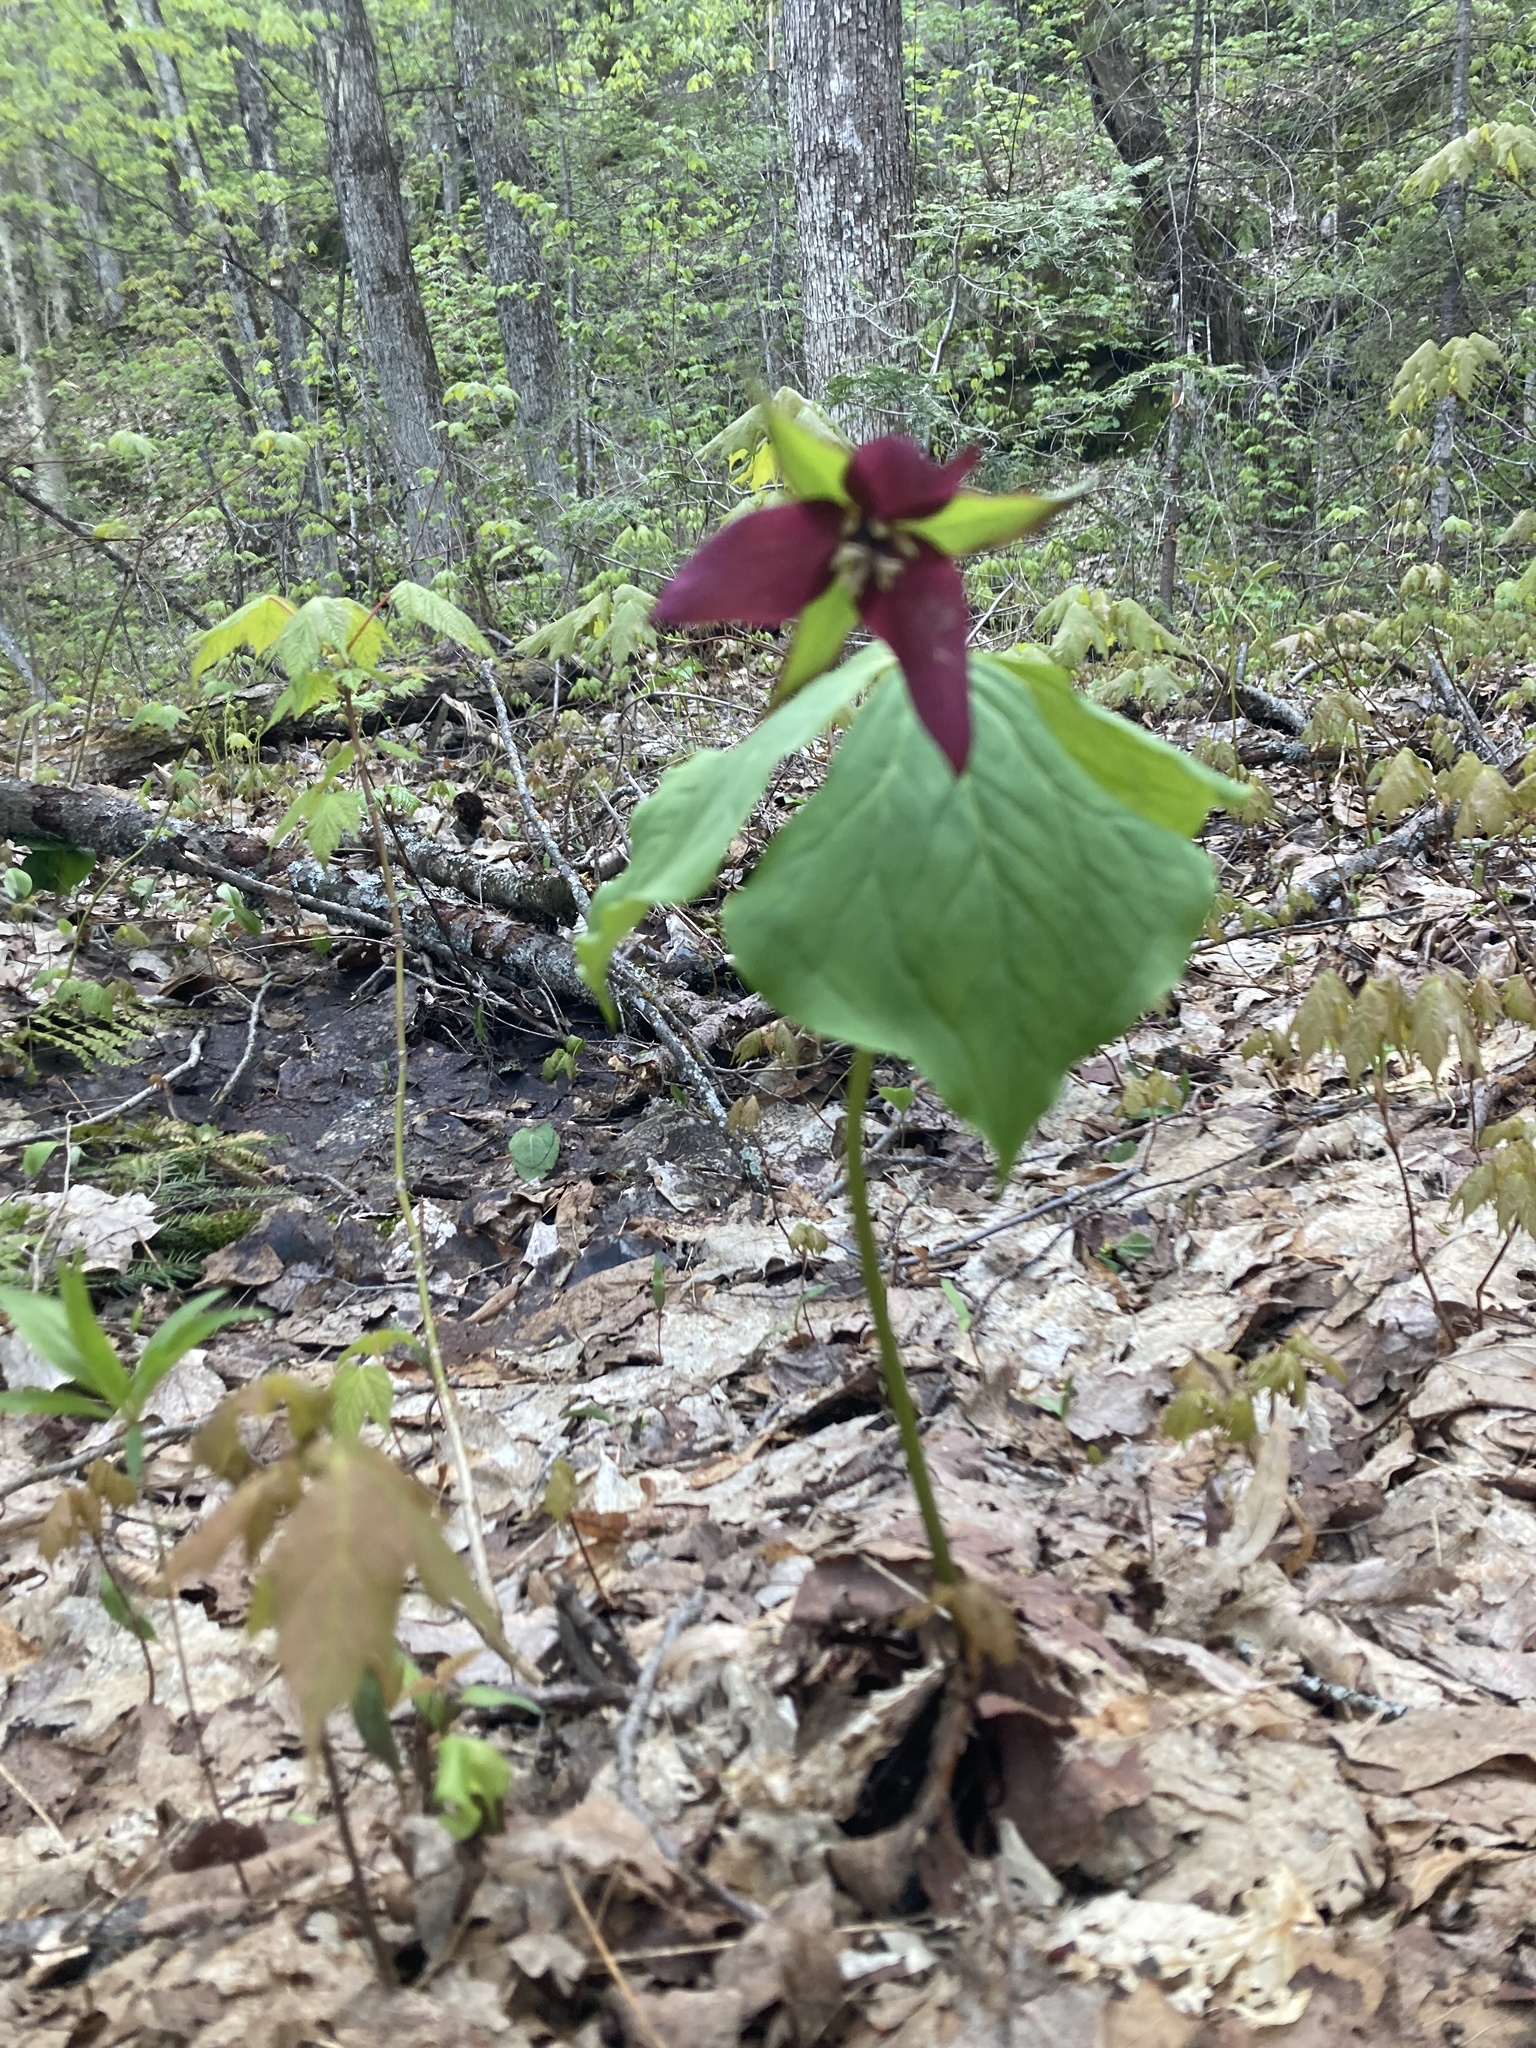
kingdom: Plantae
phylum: Tracheophyta
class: Liliopsida
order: Liliales
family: Melanthiaceae
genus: Trillium
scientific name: Trillium erectum
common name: Purple trillium
